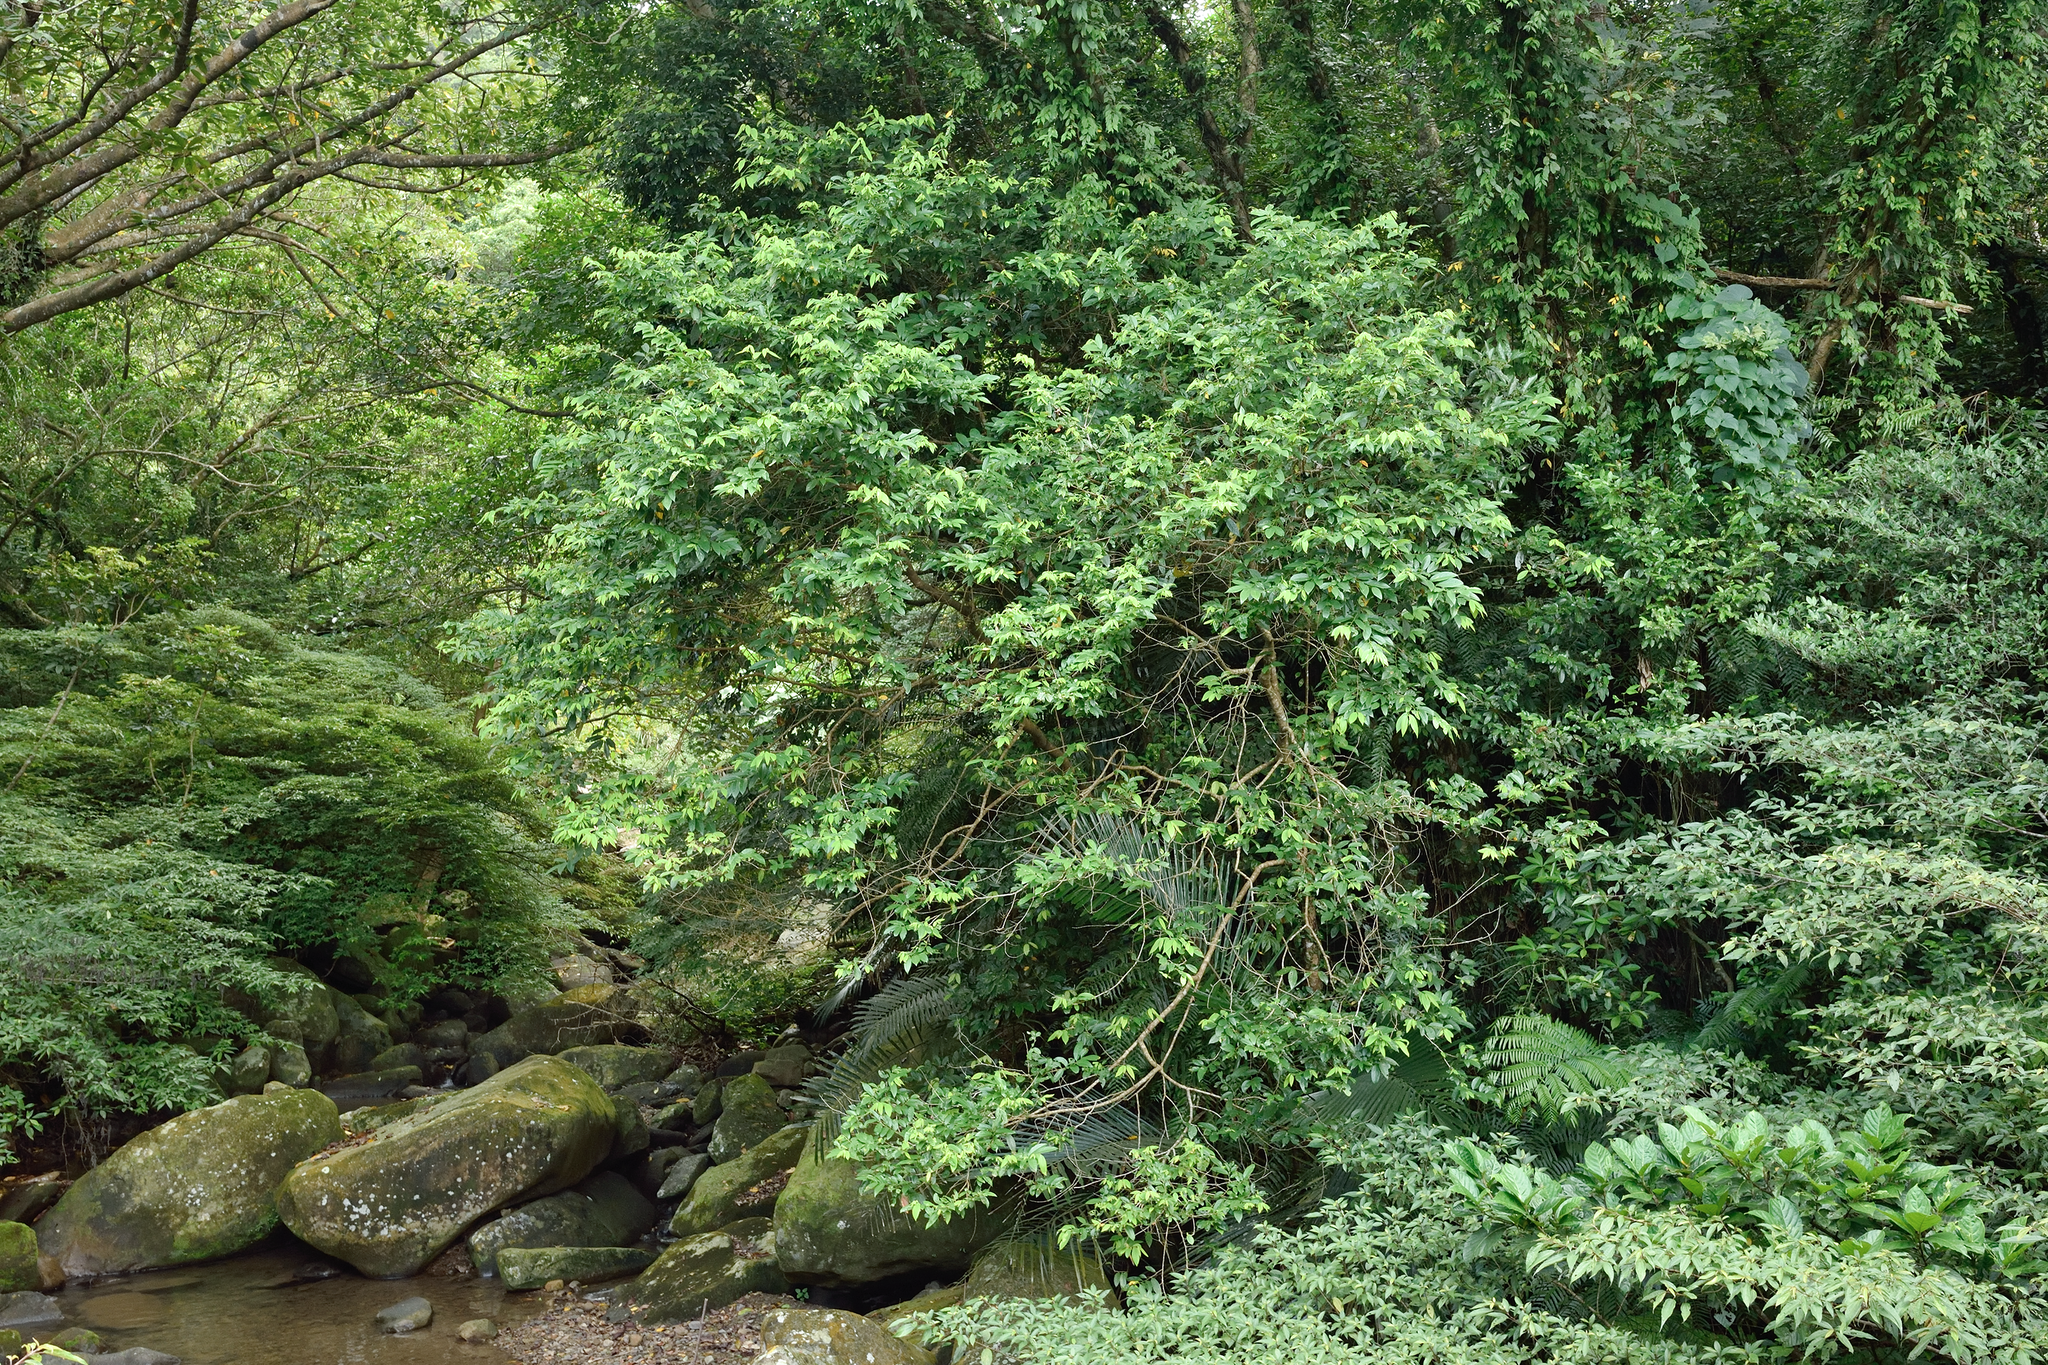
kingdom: Plantae
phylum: Tracheophyta
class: Magnoliopsida
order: Malpighiales
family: Phyllanthaceae
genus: Bridelia
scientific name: Bridelia balansae
